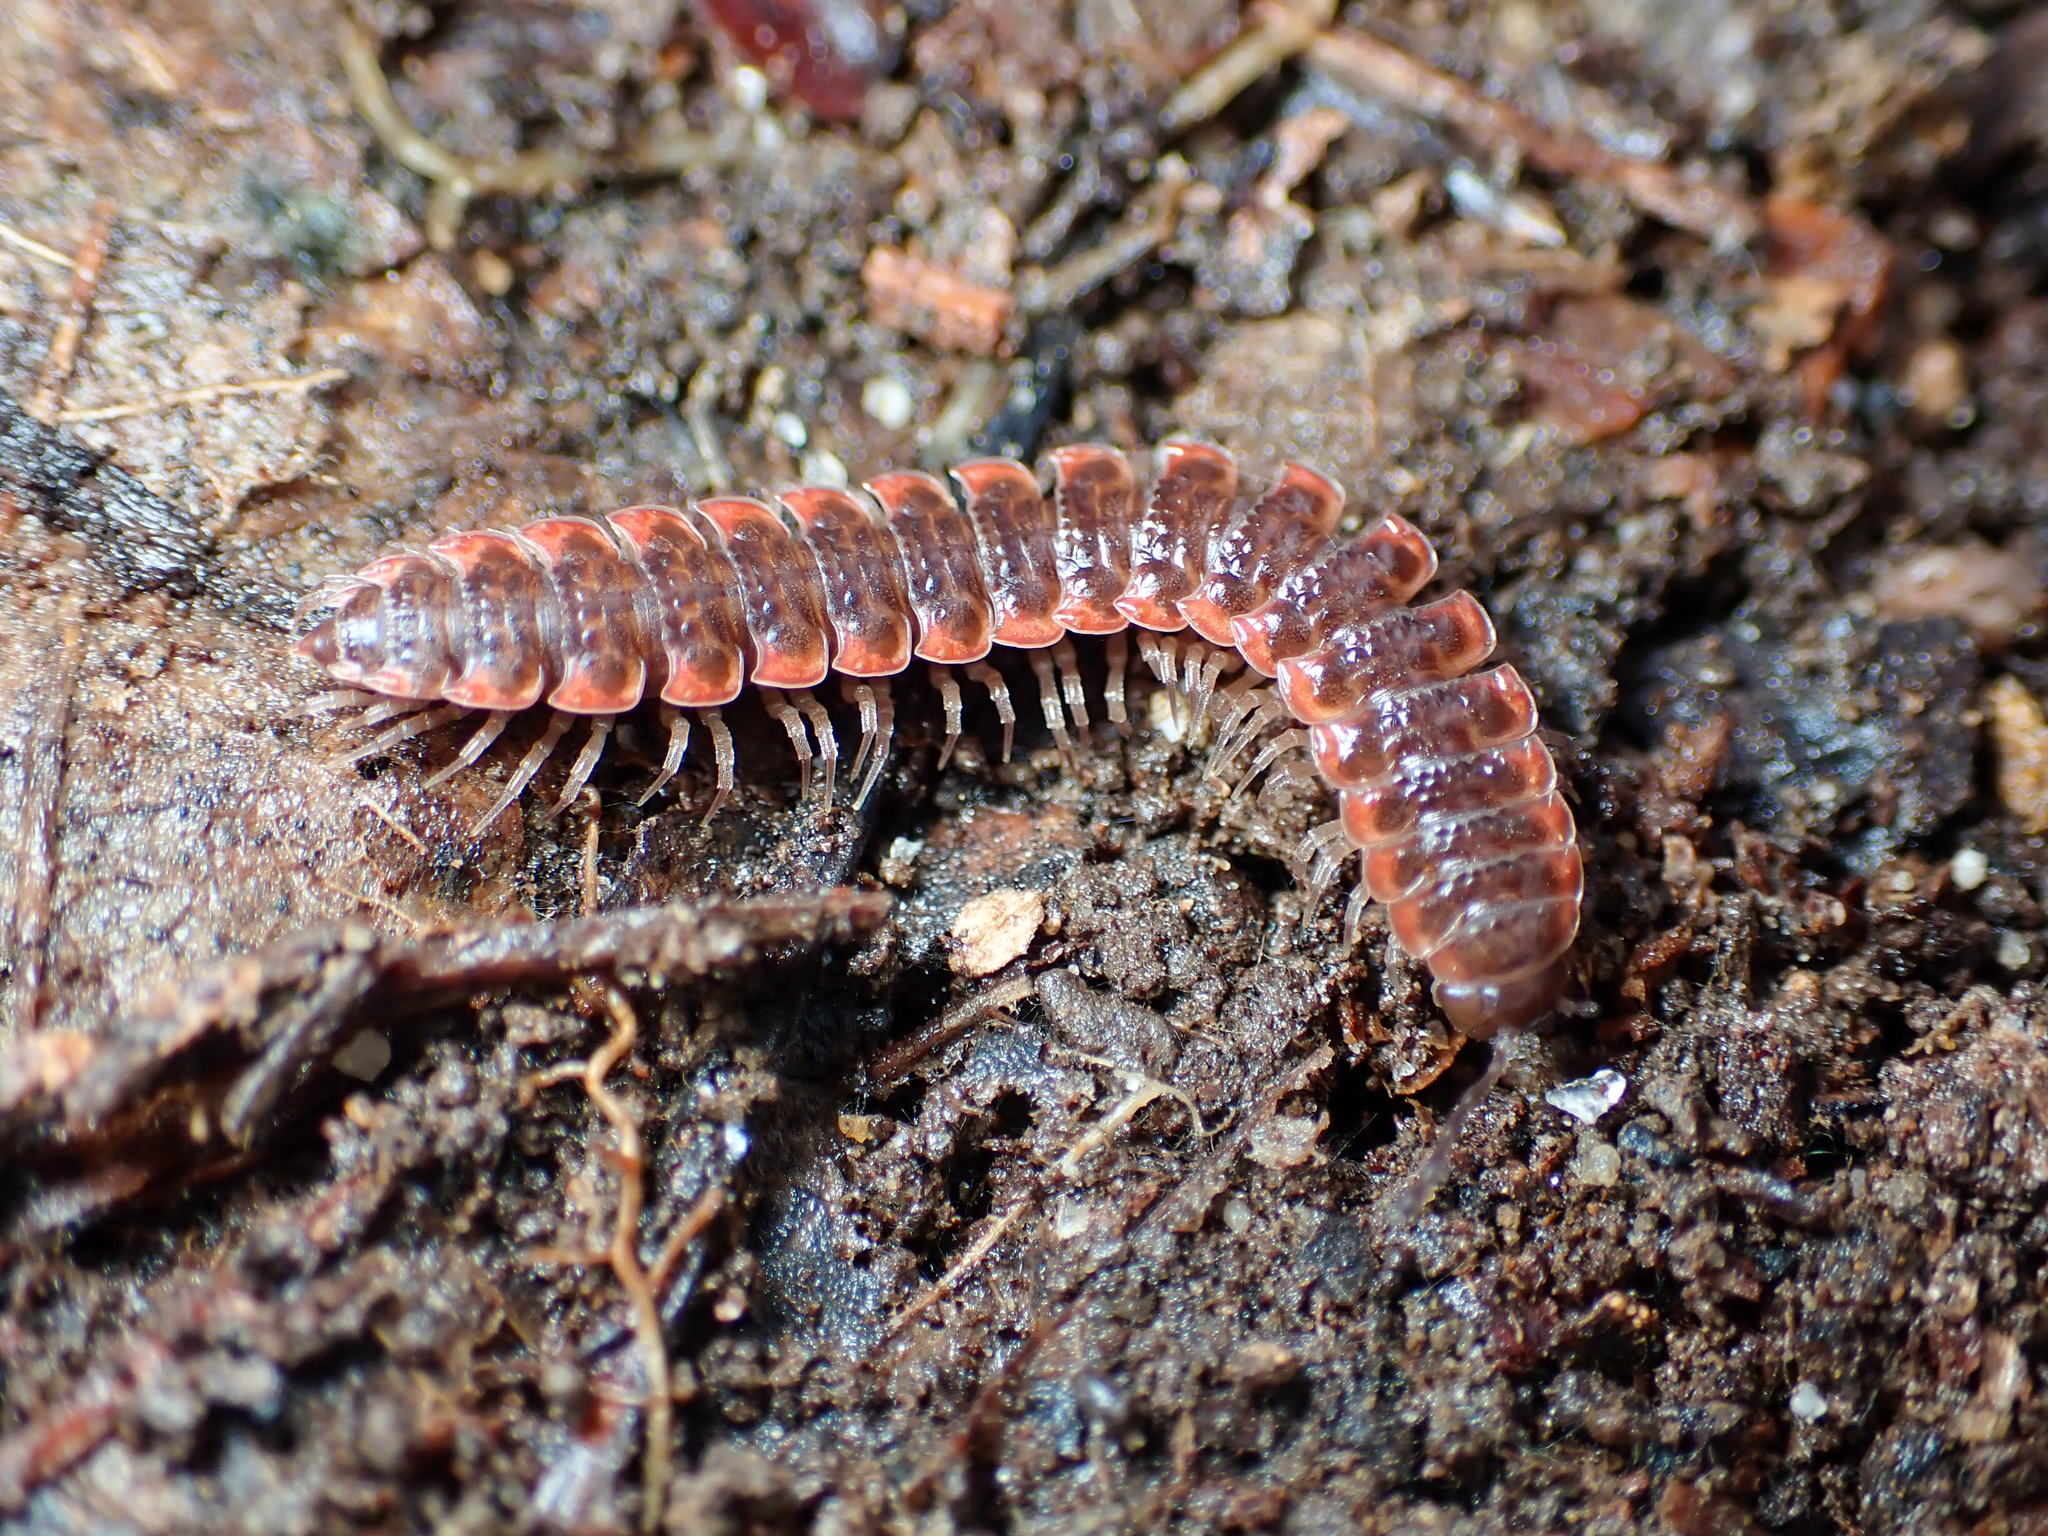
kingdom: Animalia
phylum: Arthropoda
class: Diplopoda
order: Polydesmida
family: Polydesmidae
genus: Pseudopolydesmus
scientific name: Pseudopolydesmus erasus
